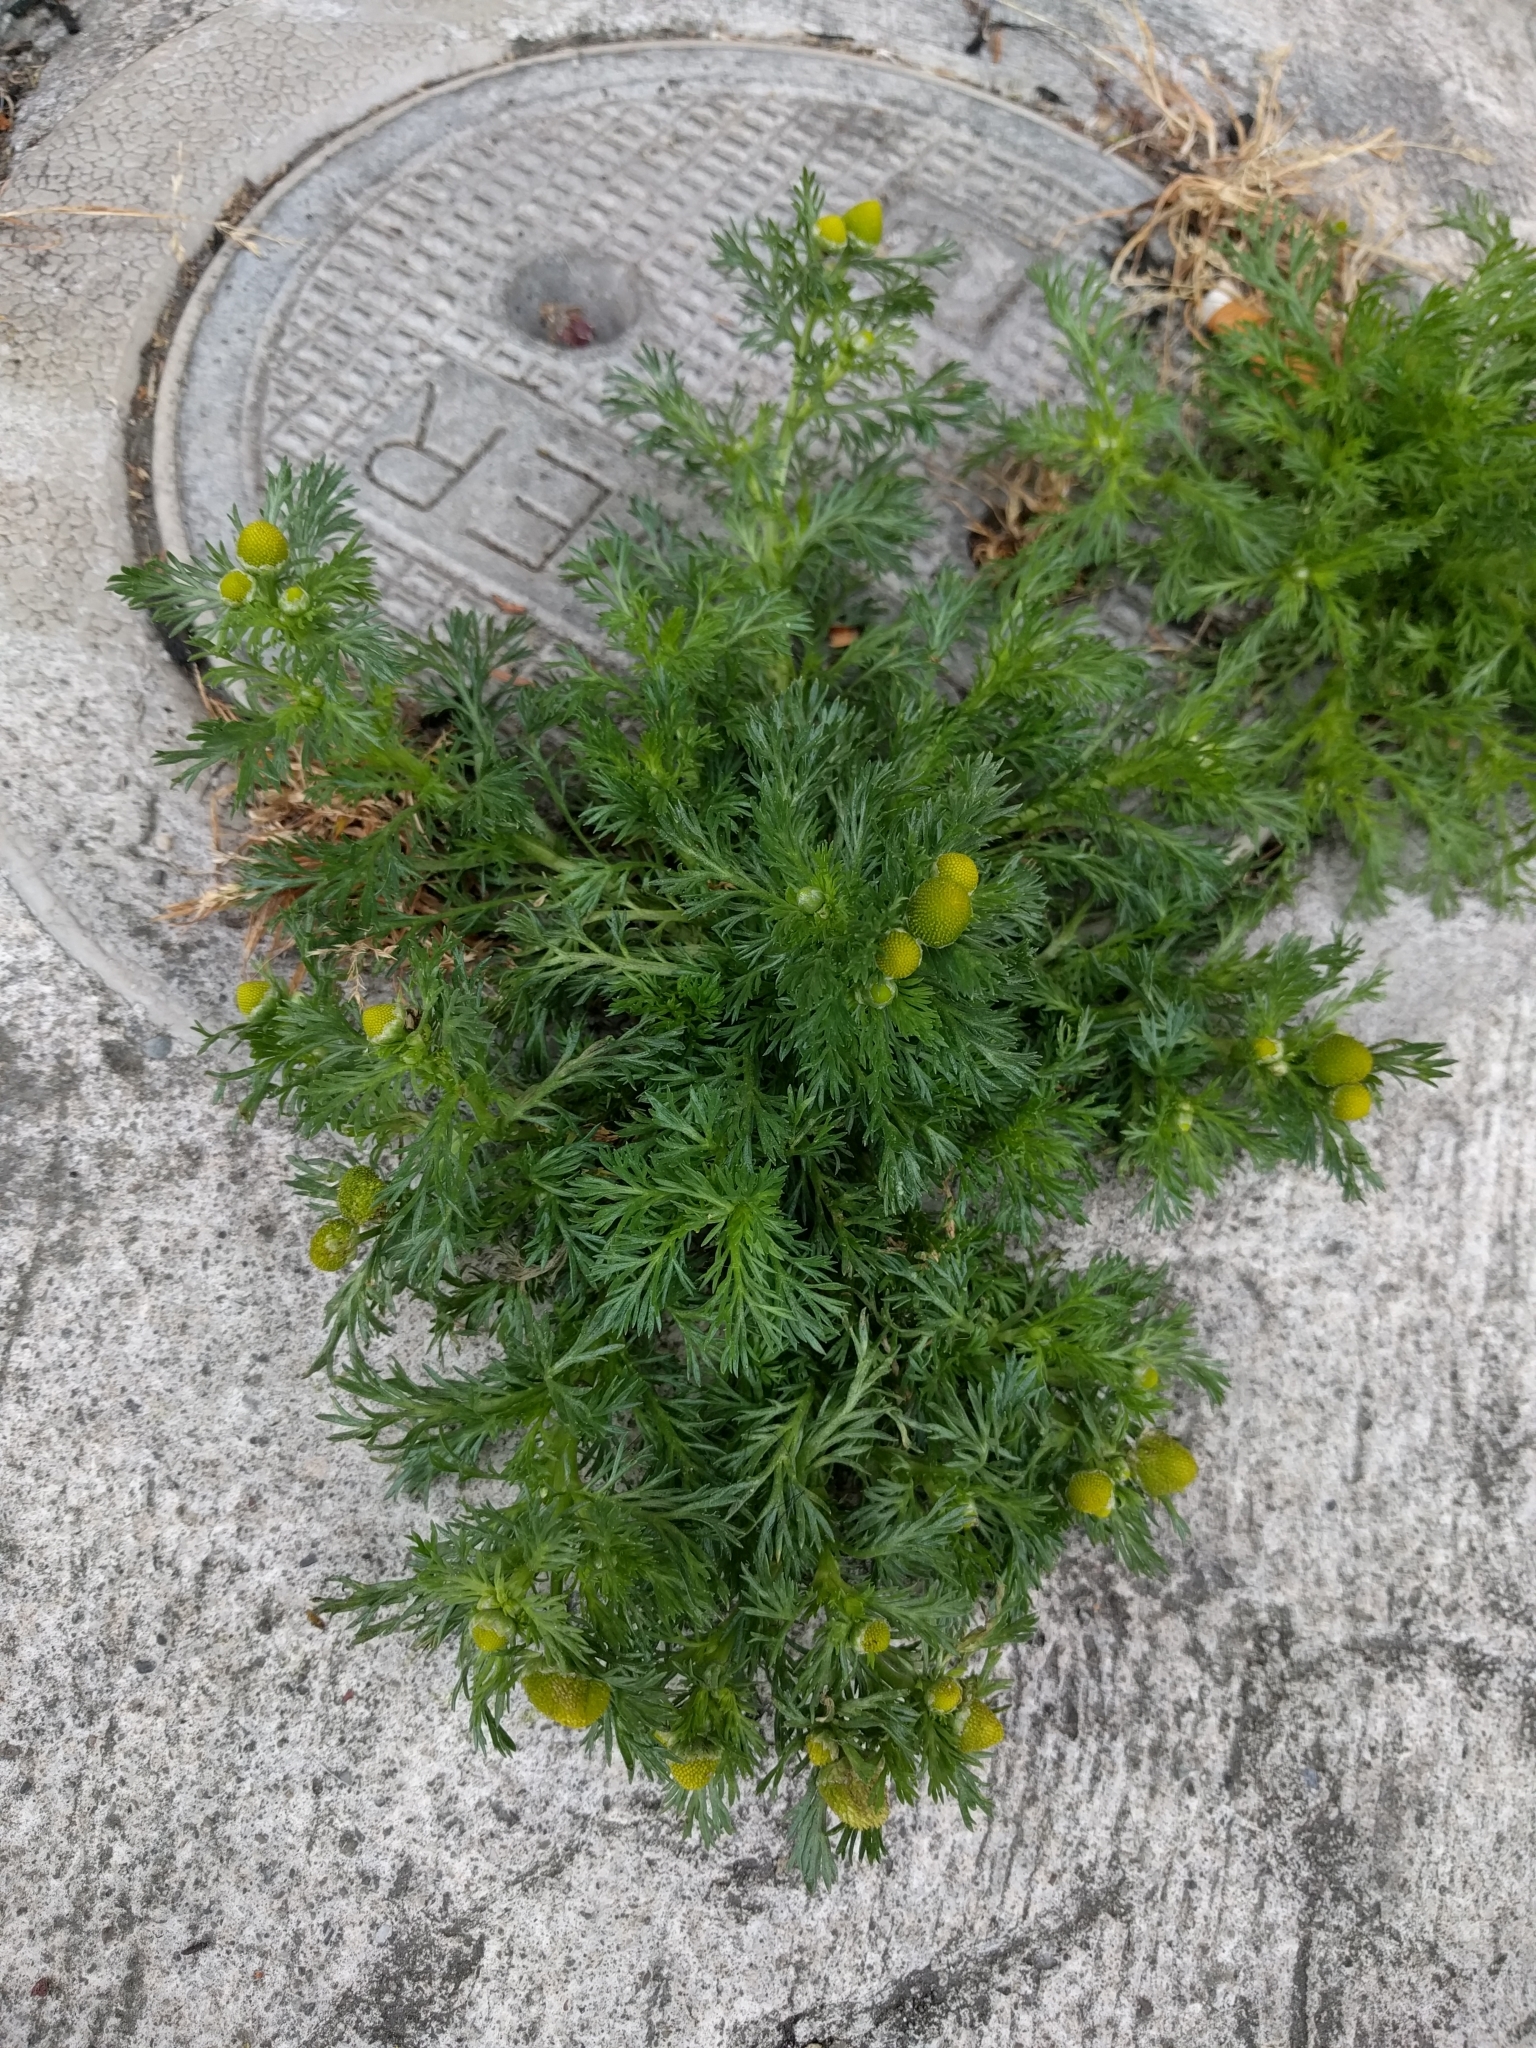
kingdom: Plantae
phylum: Tracheophyta
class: Magnoliopsida
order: Asterales
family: Asteraceae
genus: Matricaria
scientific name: Matricaria discoidea
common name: Disc mayweed
